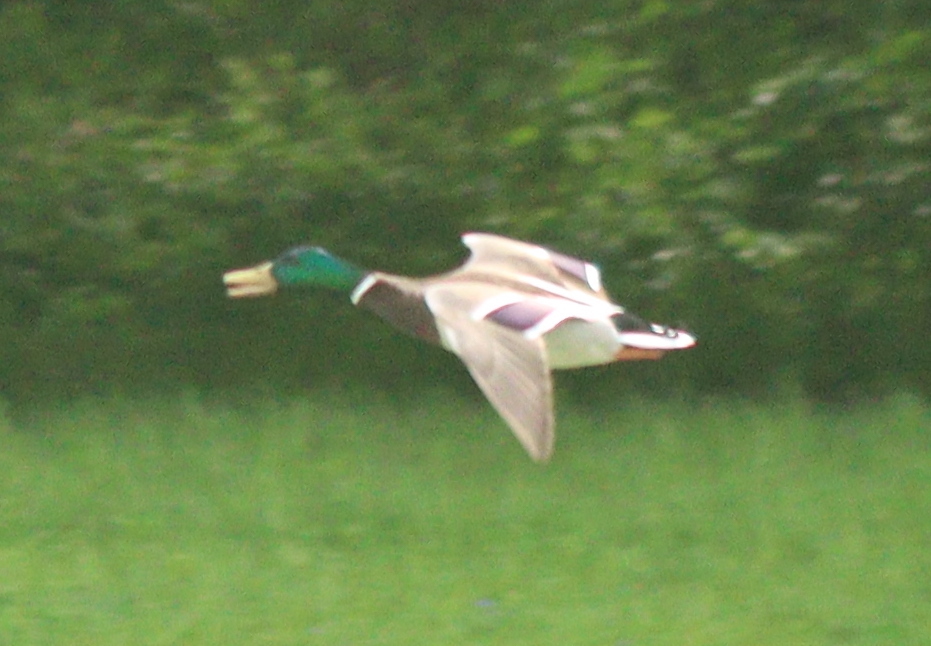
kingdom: Animalia
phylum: Chordata
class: Aves
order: Anseriformes
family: Anatidae
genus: Anas
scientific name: Anas platyrhynchos
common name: Mallard
